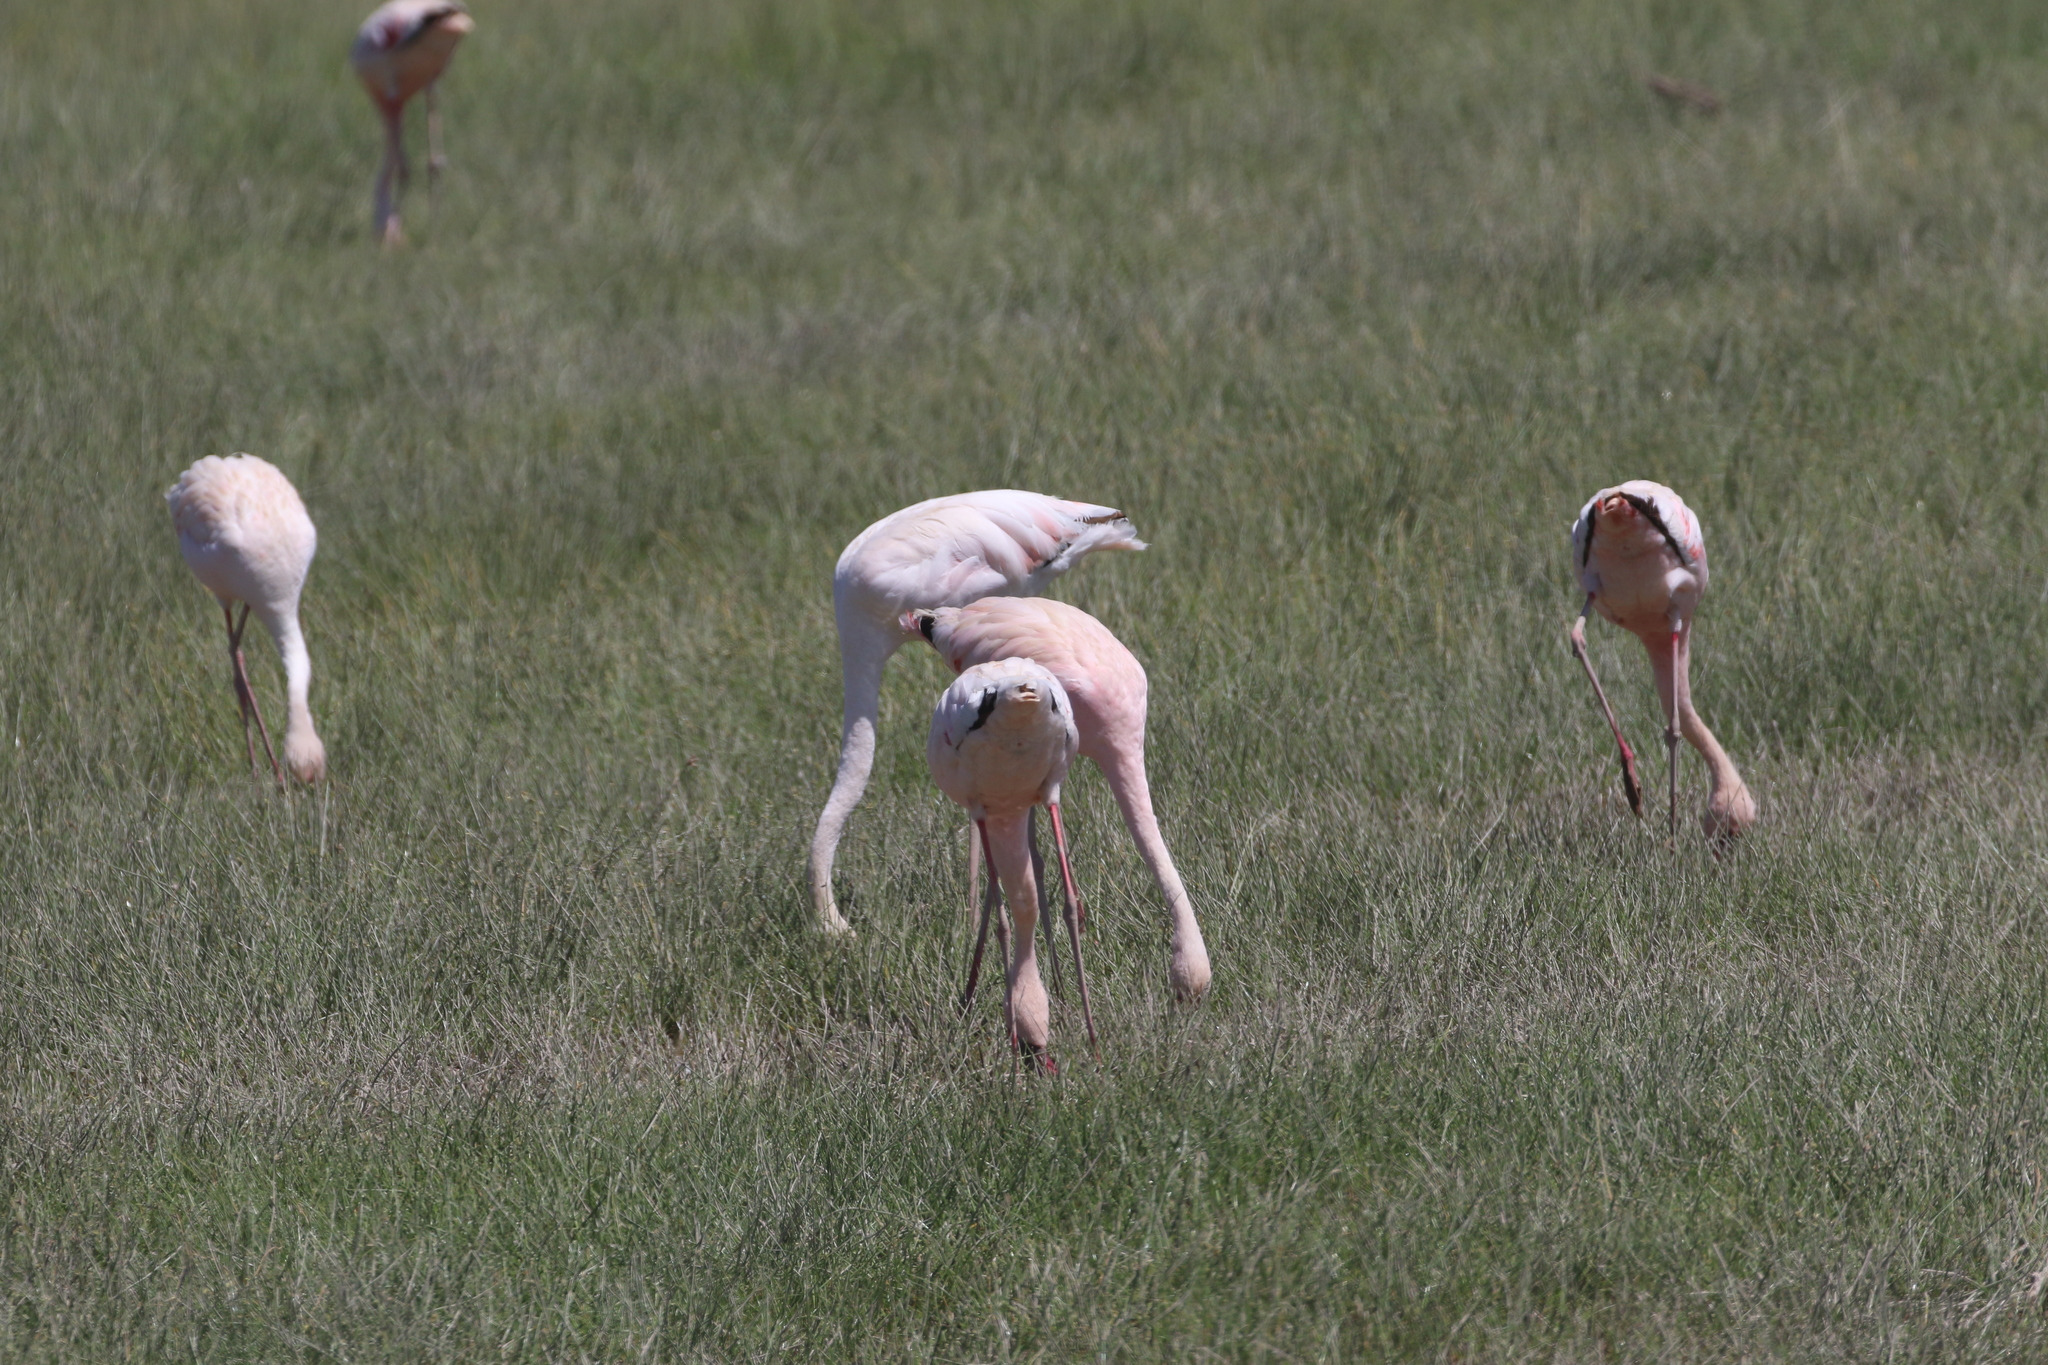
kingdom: Animalia
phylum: Chordata
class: Aves
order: Phoenicopteriformes
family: Phoenicopteridae
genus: Phoeniconaias
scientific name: Phoeniconaias minor
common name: Lesser flamingo
